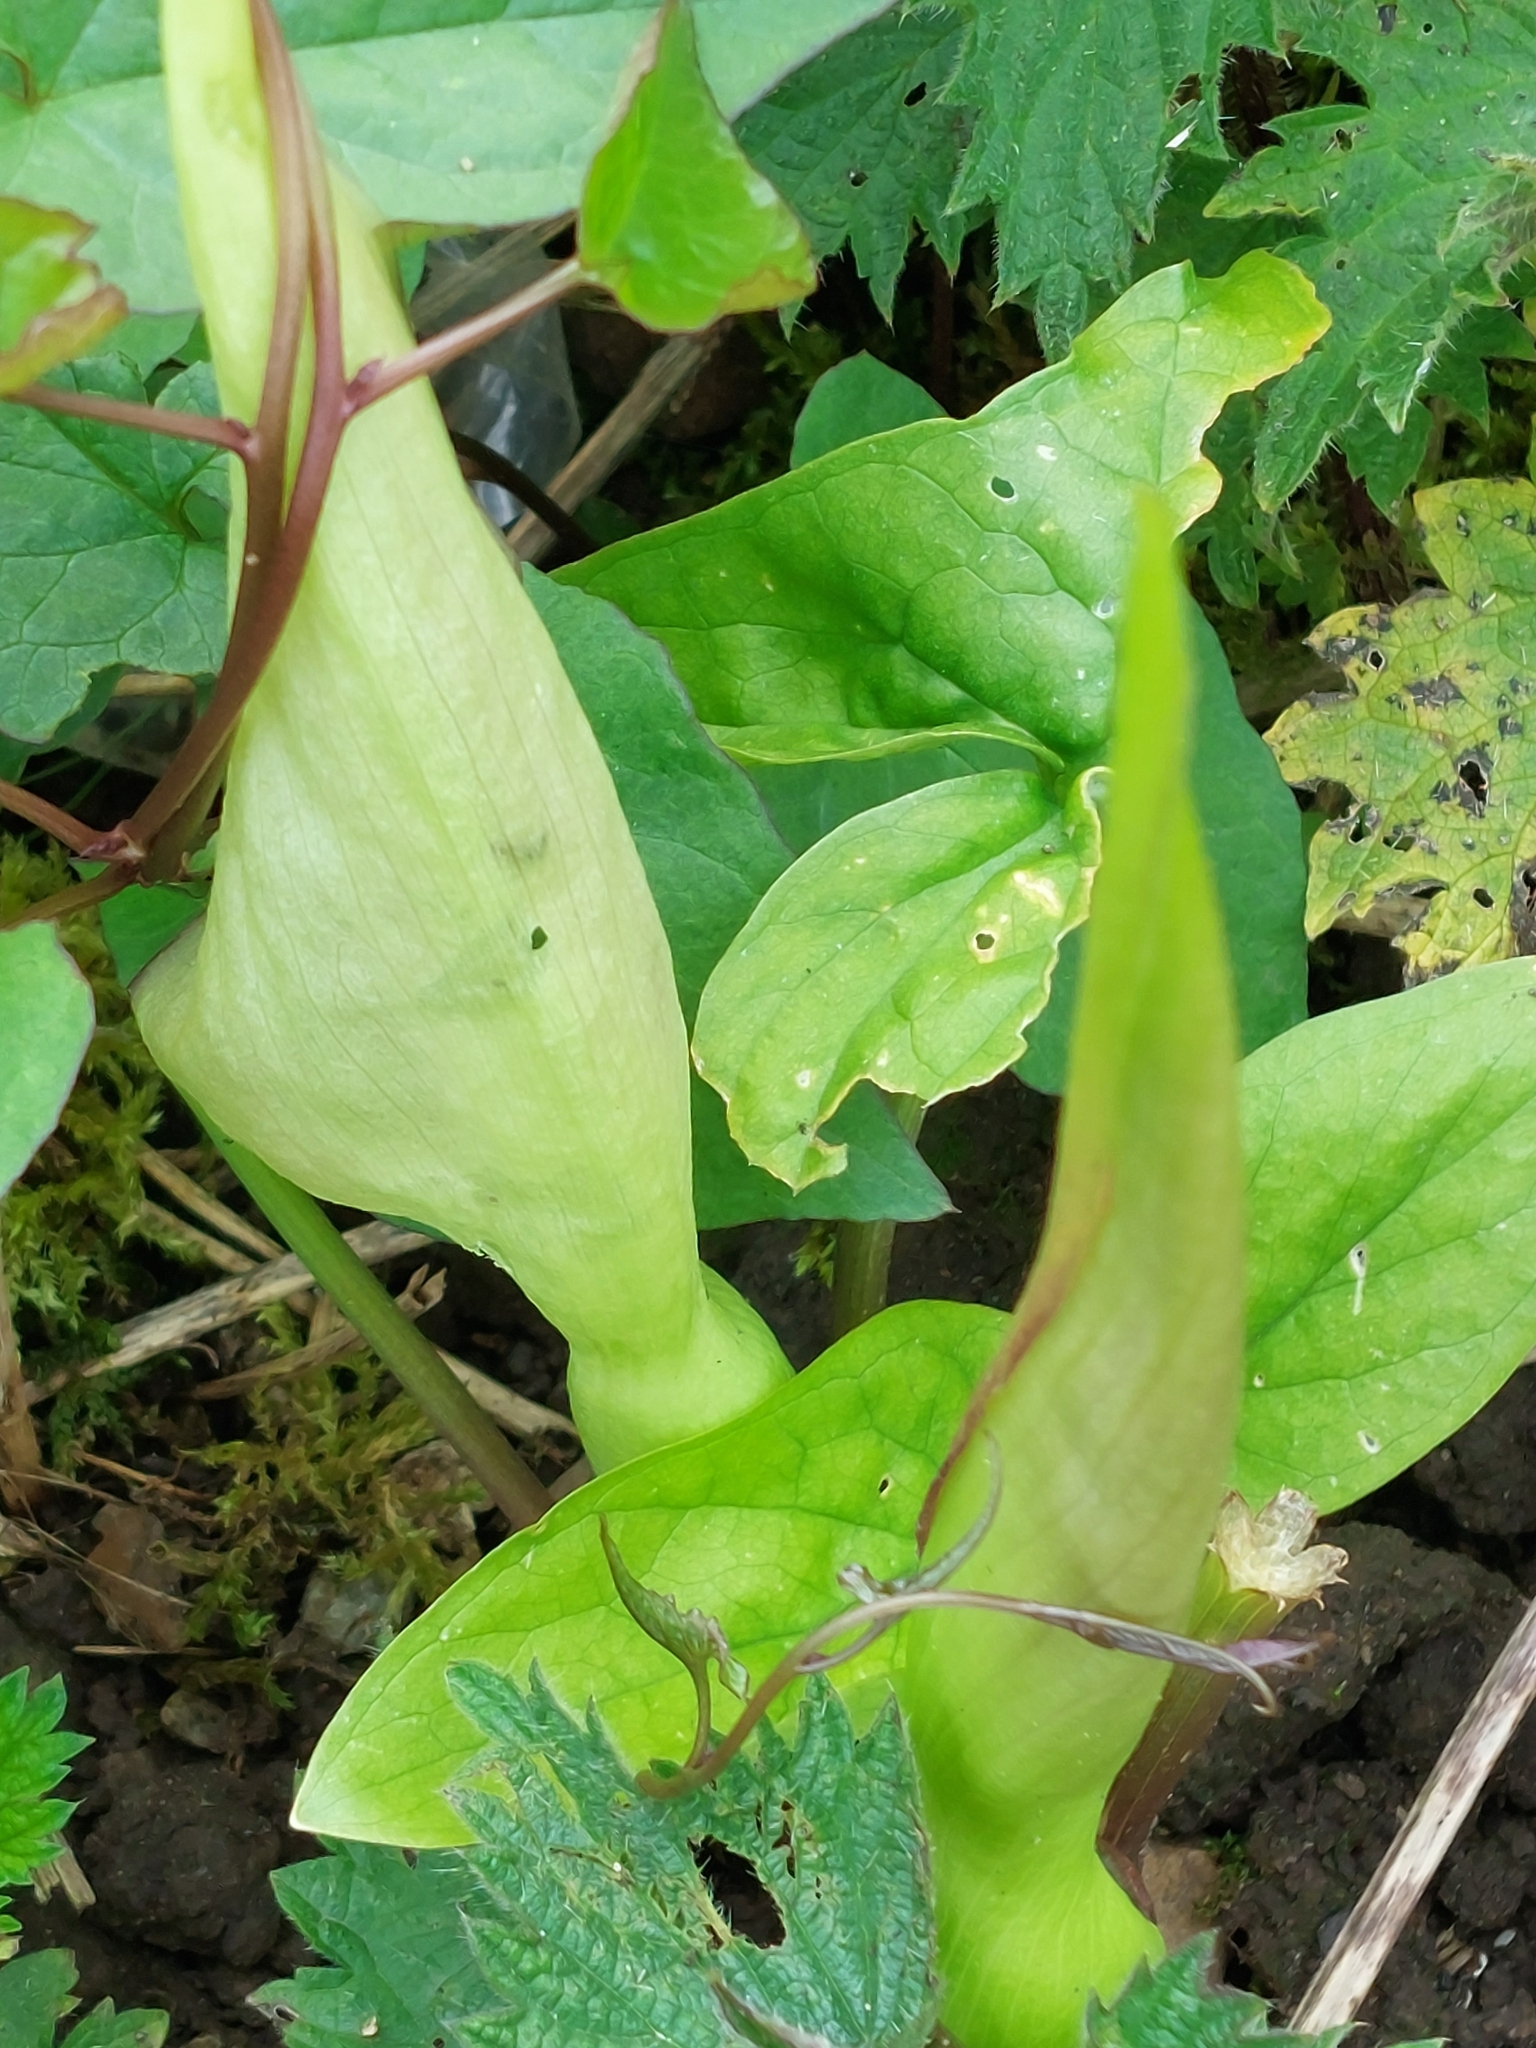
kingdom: Plantae
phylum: Tracheophyta
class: Liliopsida
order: Alismatales
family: Araceae
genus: Arum
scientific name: Arum maculatum
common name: Lords-and-ladies
